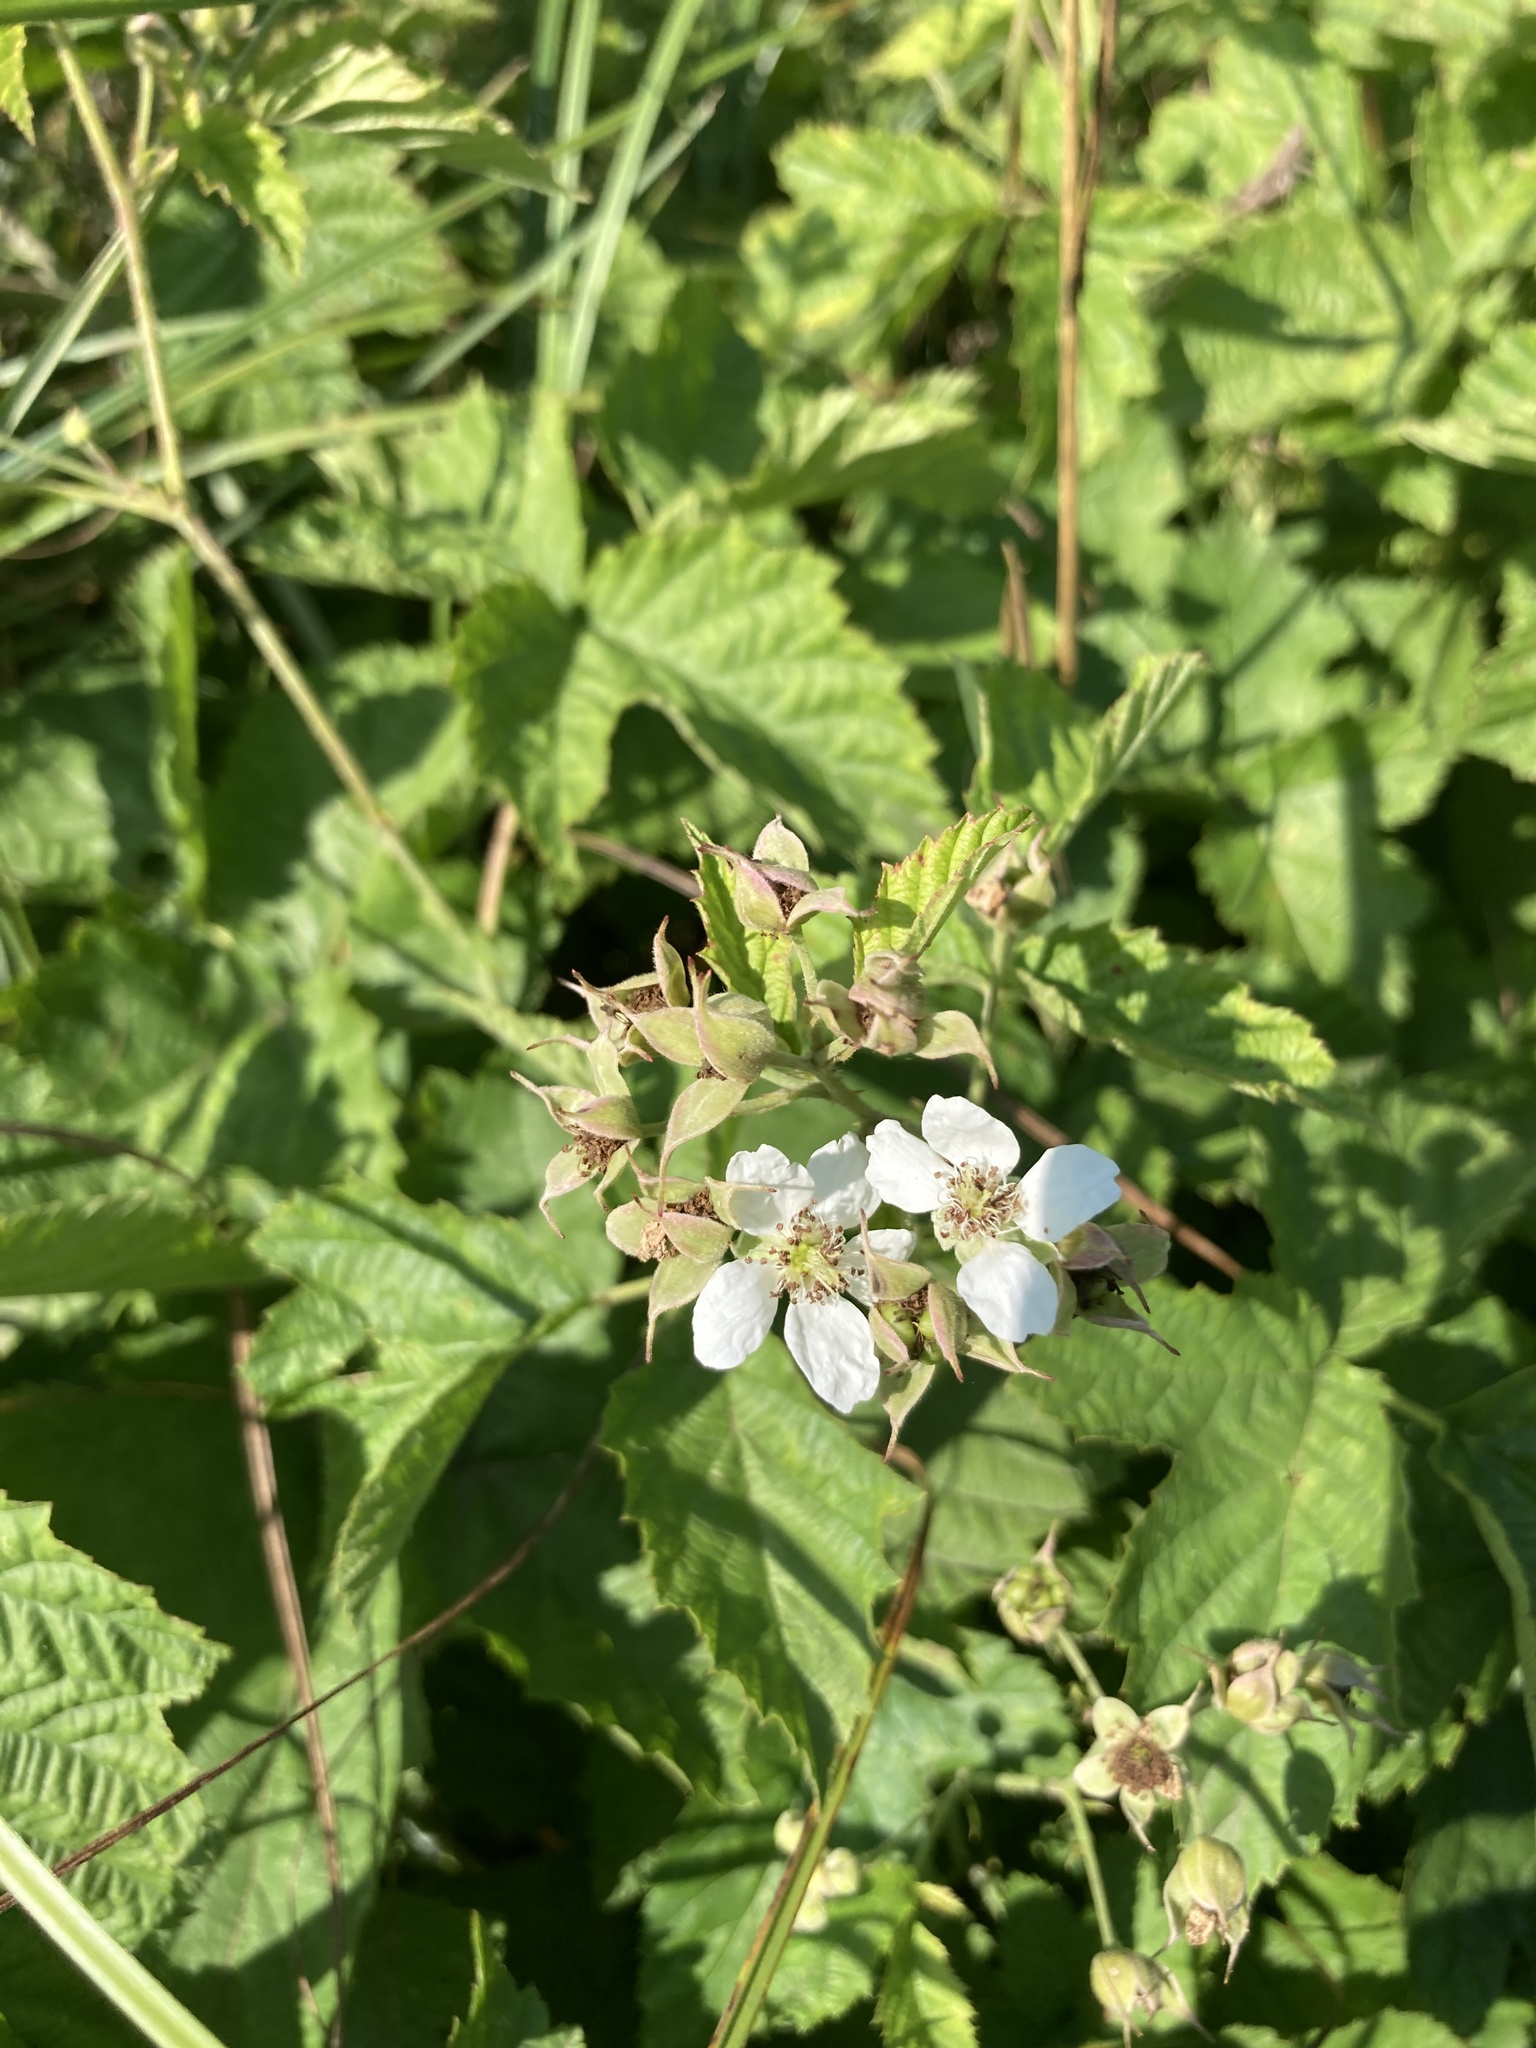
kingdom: Plantae
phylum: Tracheophyta
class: Magnoliopsida
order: Rosales
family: Rosaceae
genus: Rubus
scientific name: Rubus caesius
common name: Dewberry
